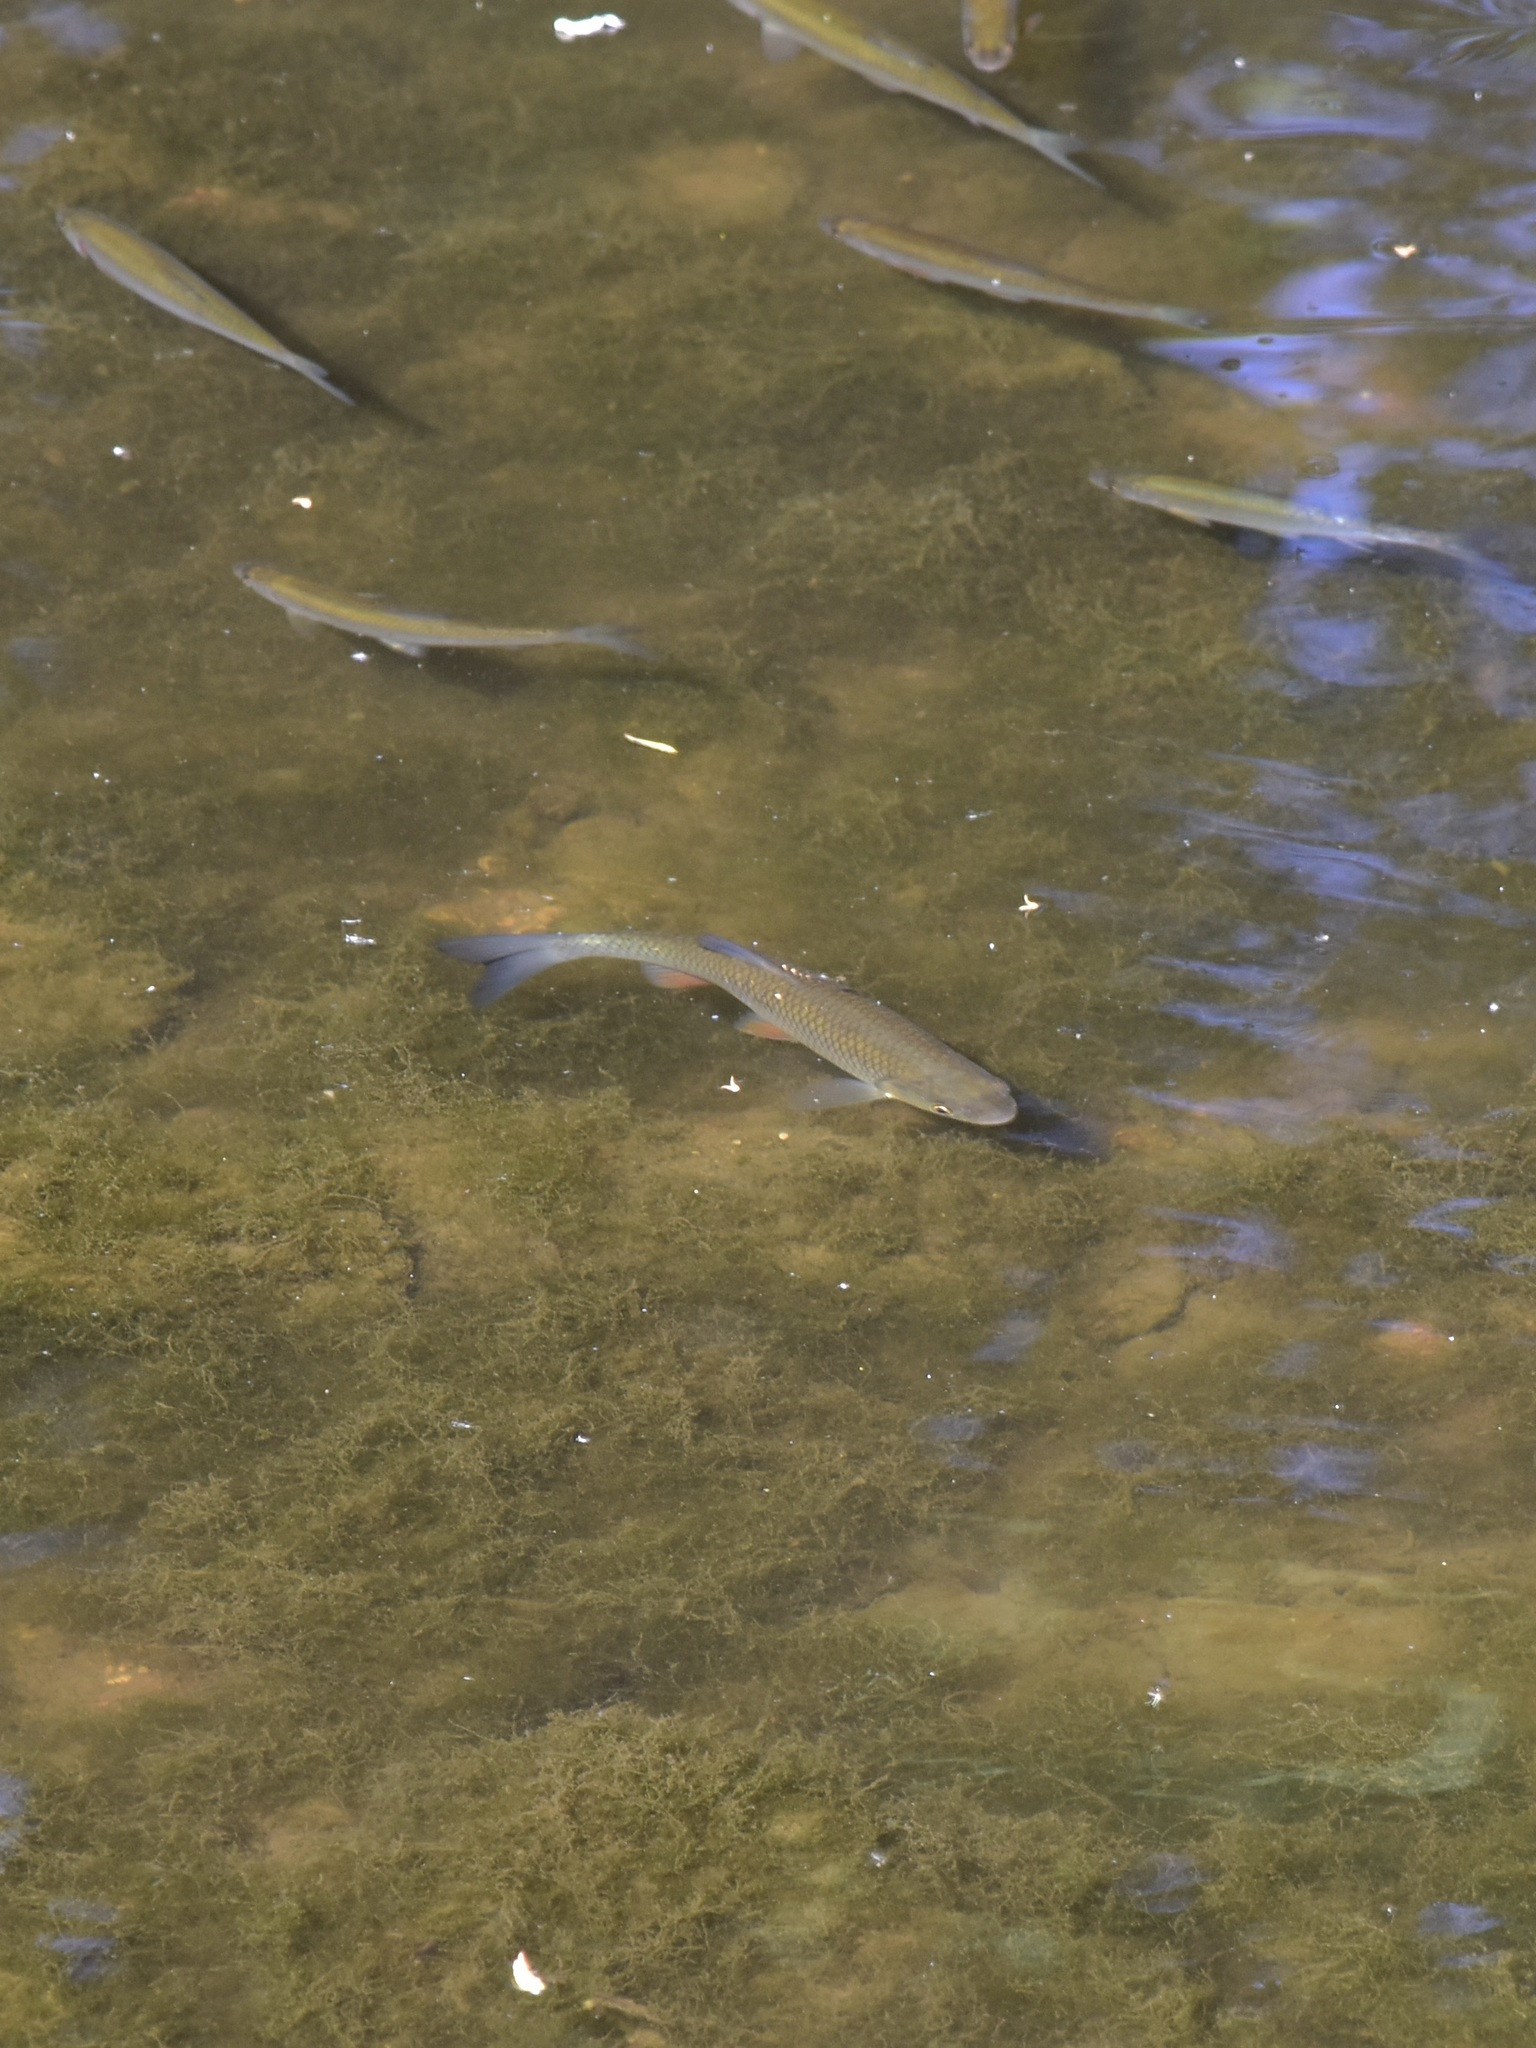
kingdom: Animalia
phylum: Chordata
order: Cypriniformes
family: Cyprinidae
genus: Squalius
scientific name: Squalius cephalus
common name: Chub
